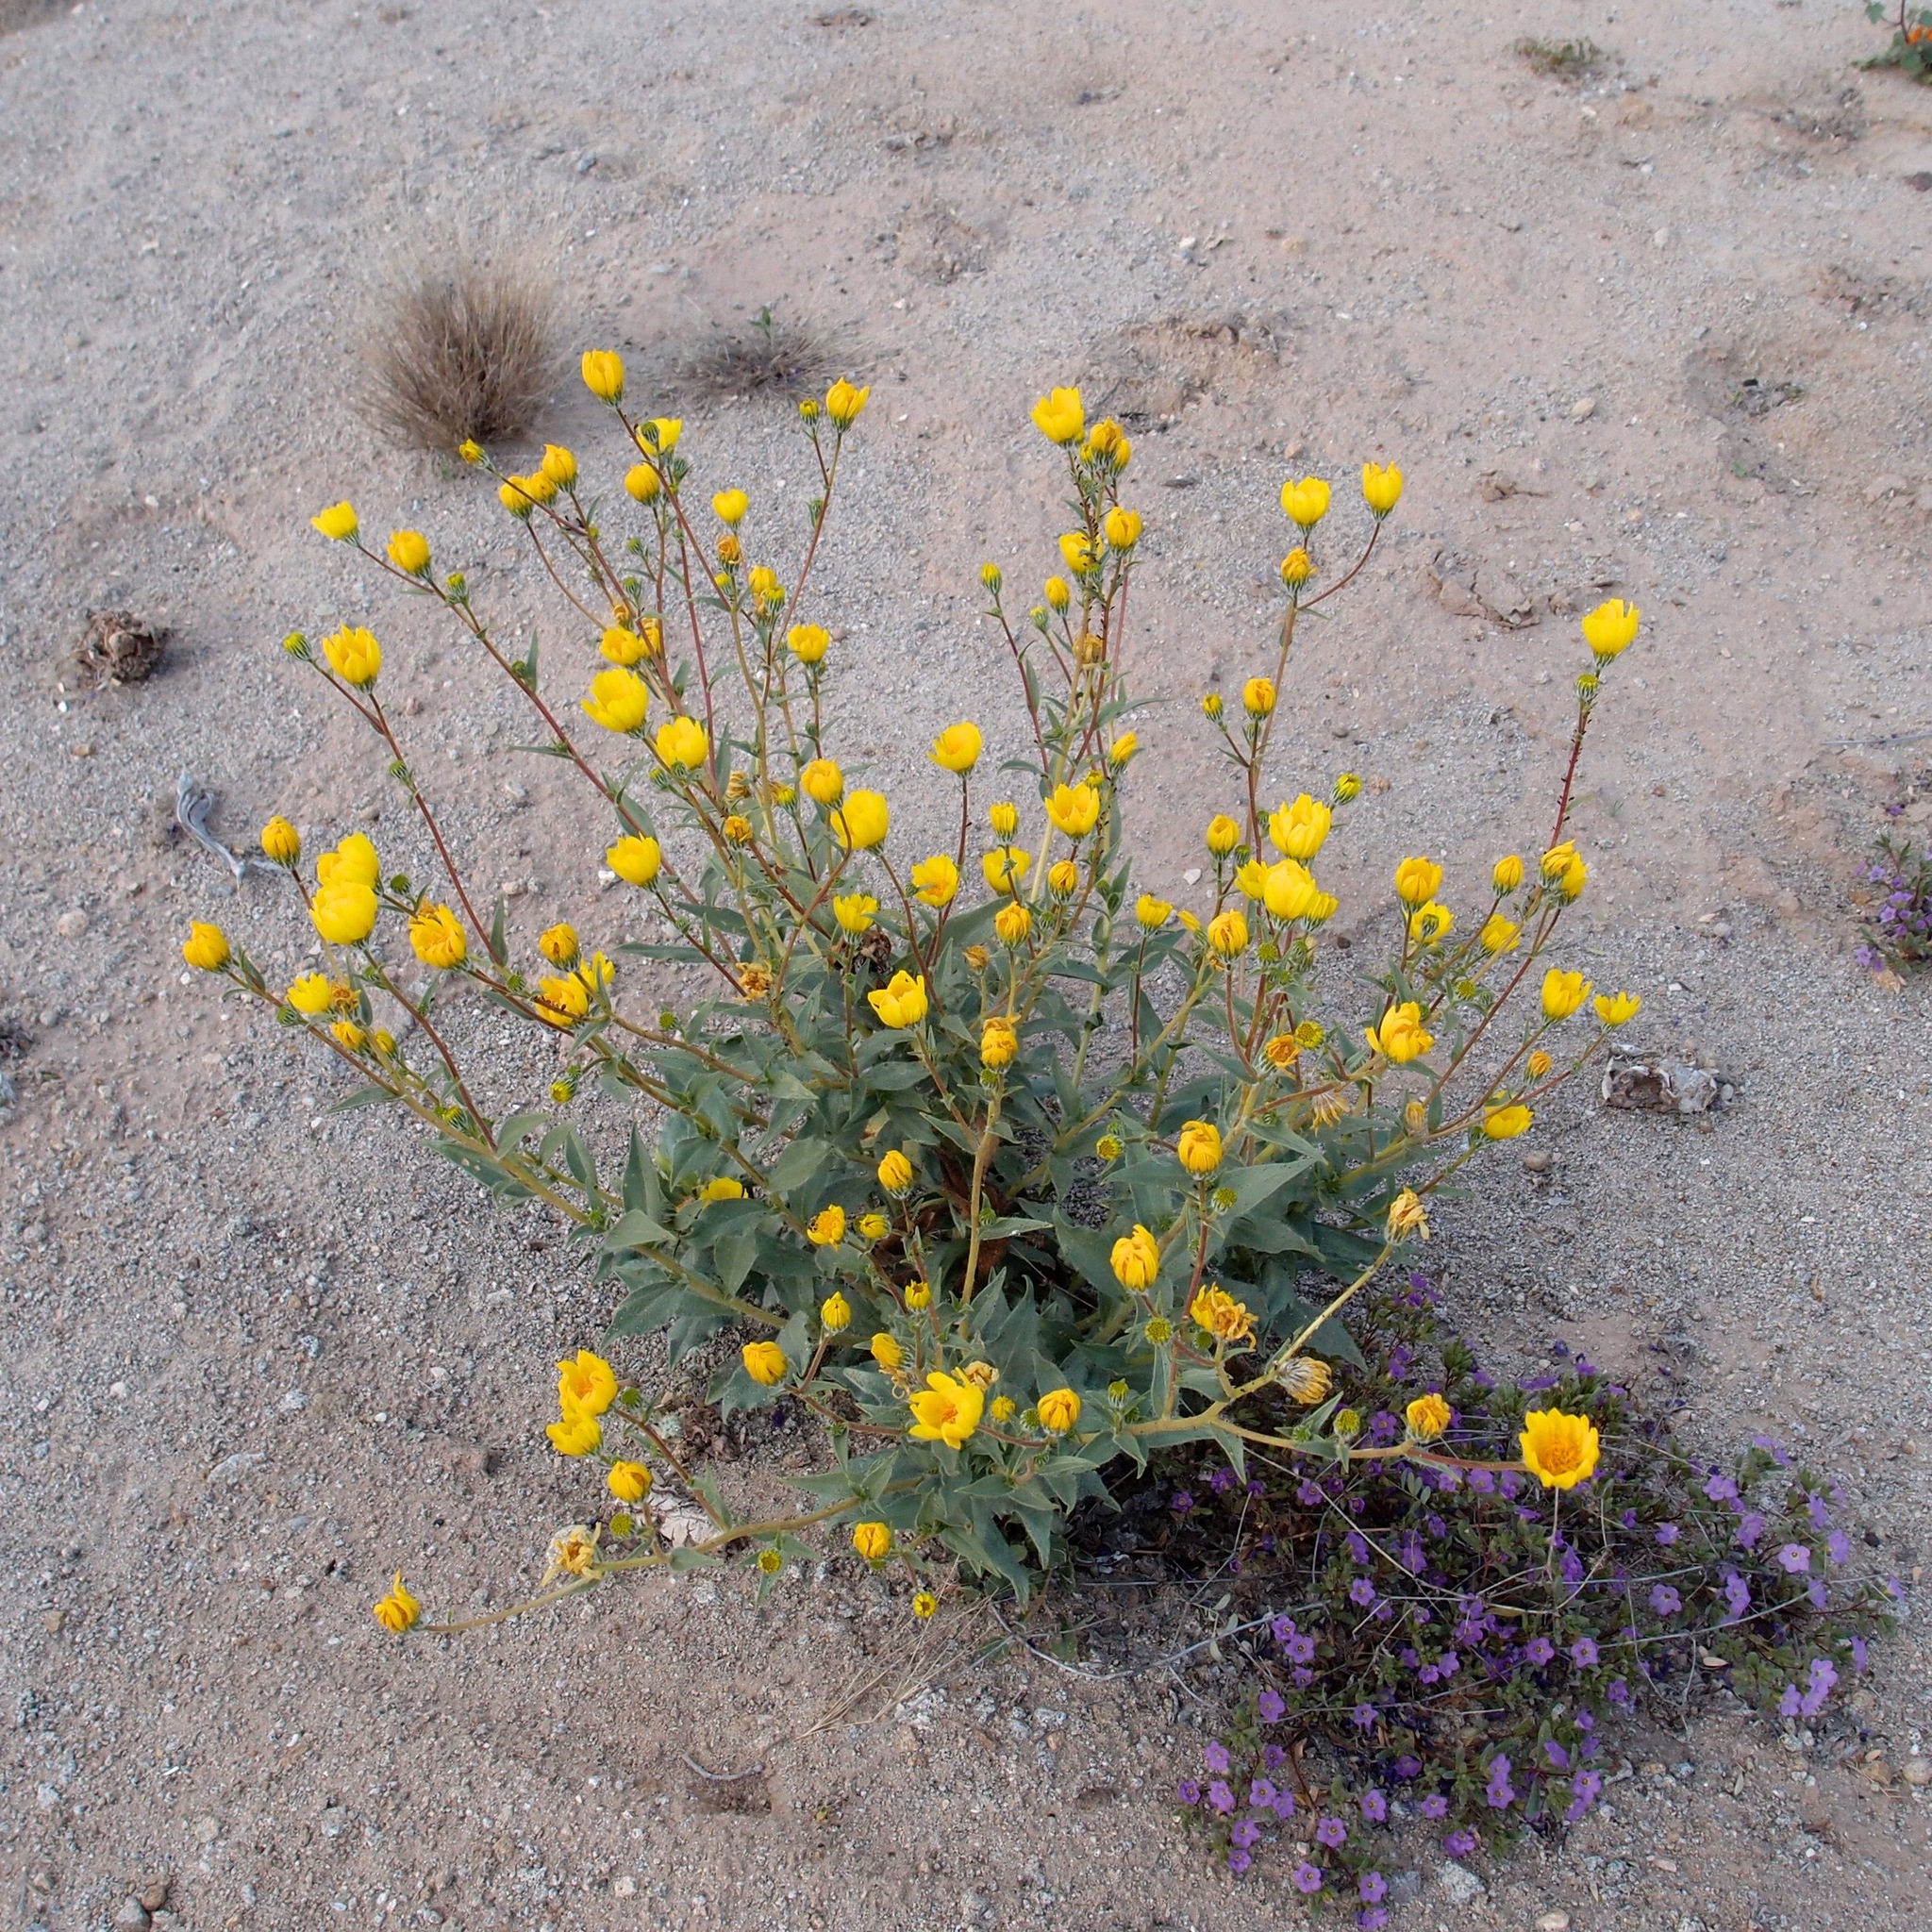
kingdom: Plantae
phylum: Tracheophyta
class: Magnoliopsida
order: Asterales
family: Asteraceae
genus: Geraea
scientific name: Geraea canescens
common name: Desert-gold
